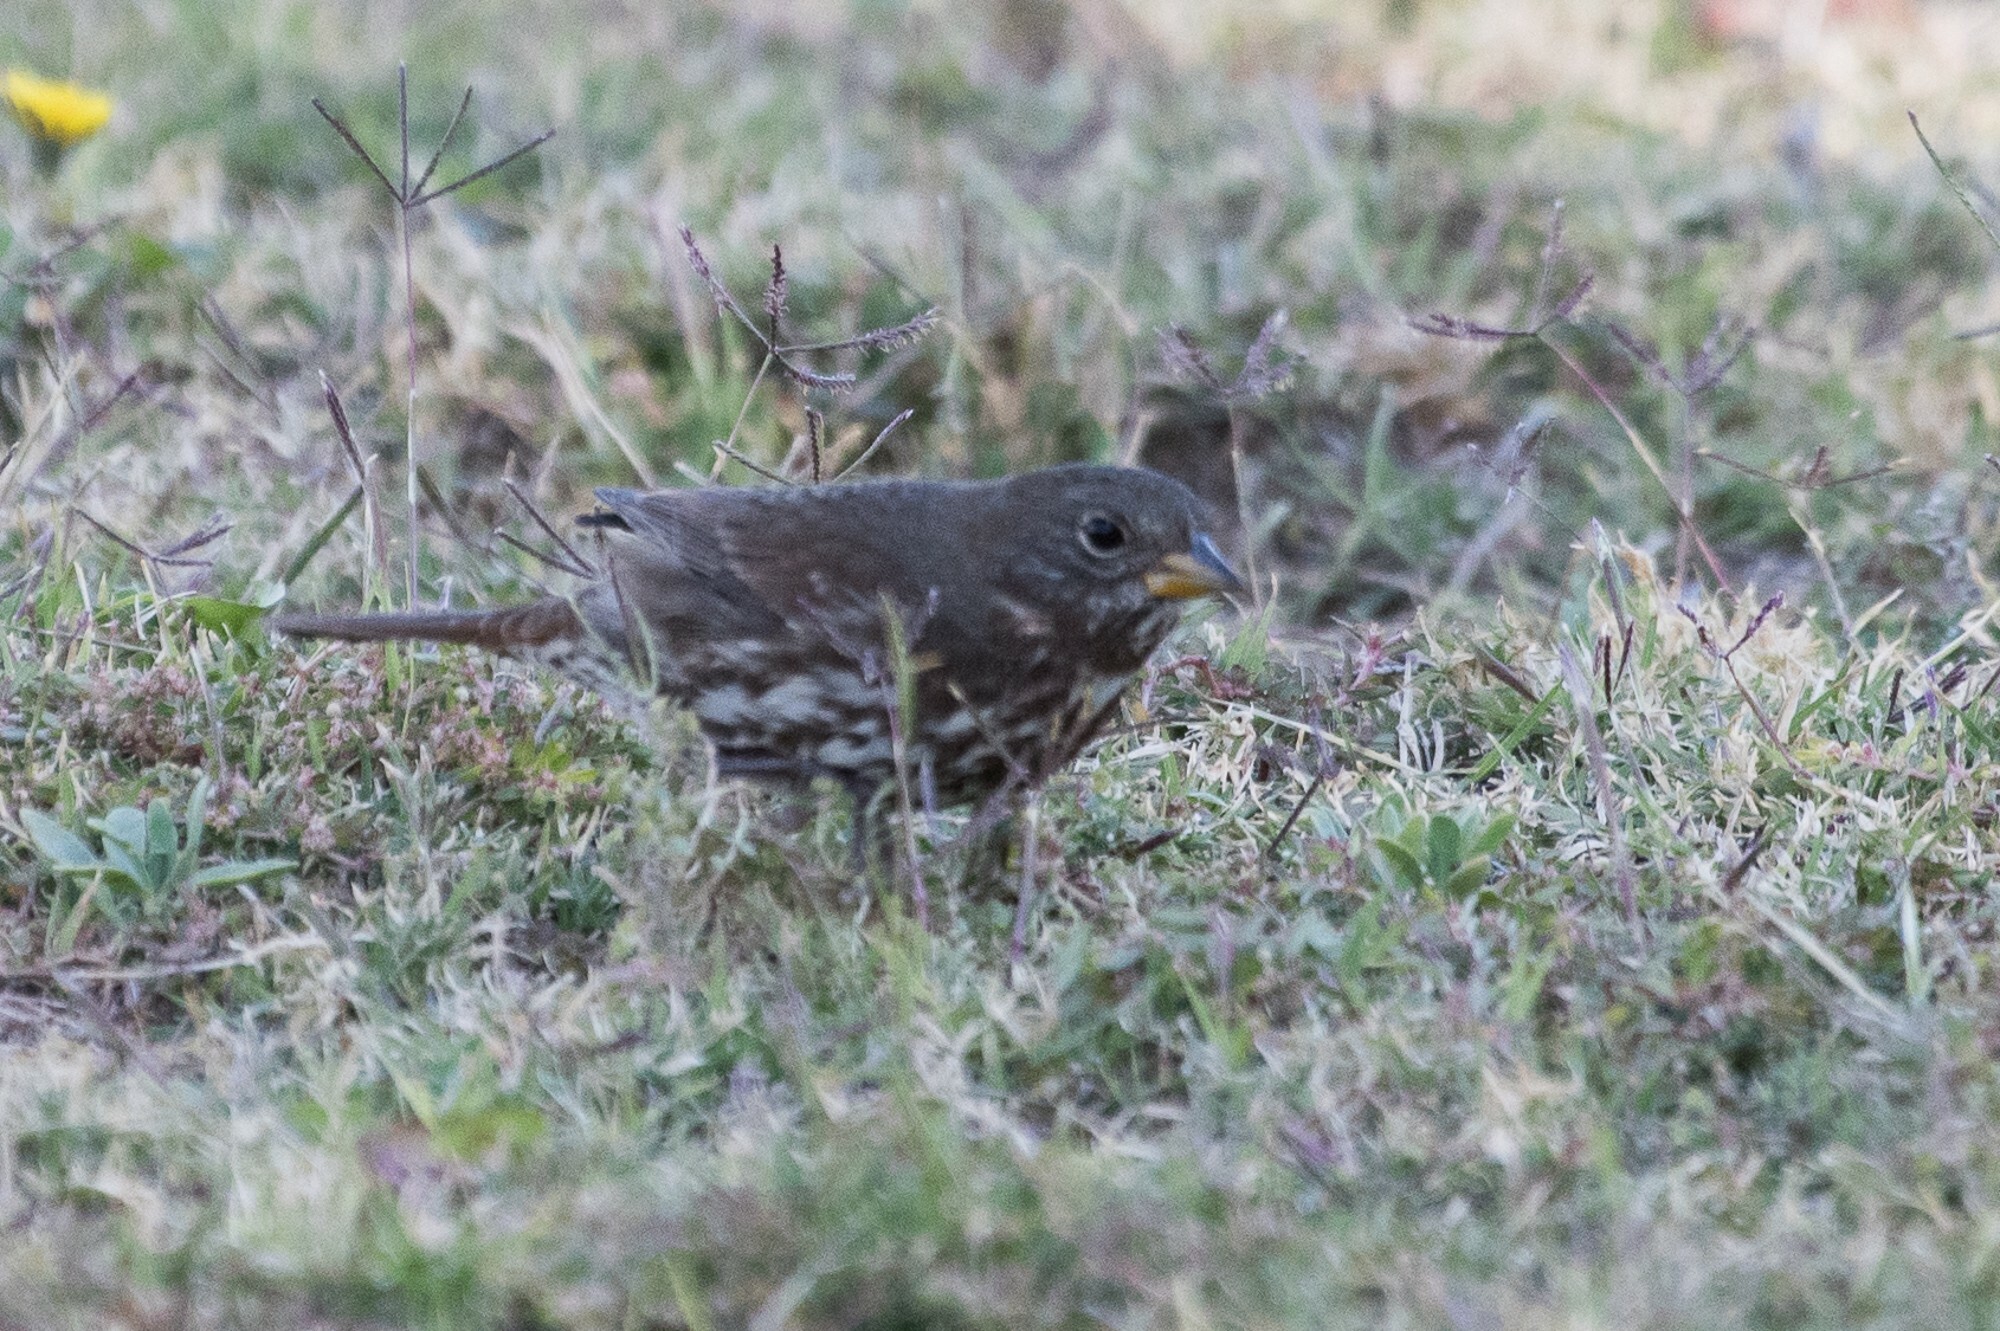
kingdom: Animalia
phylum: Chordata
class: Aves
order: Passeriformes
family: Passerellidae
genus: Passerella
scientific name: Passerella iliaca
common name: Fox sparrow
